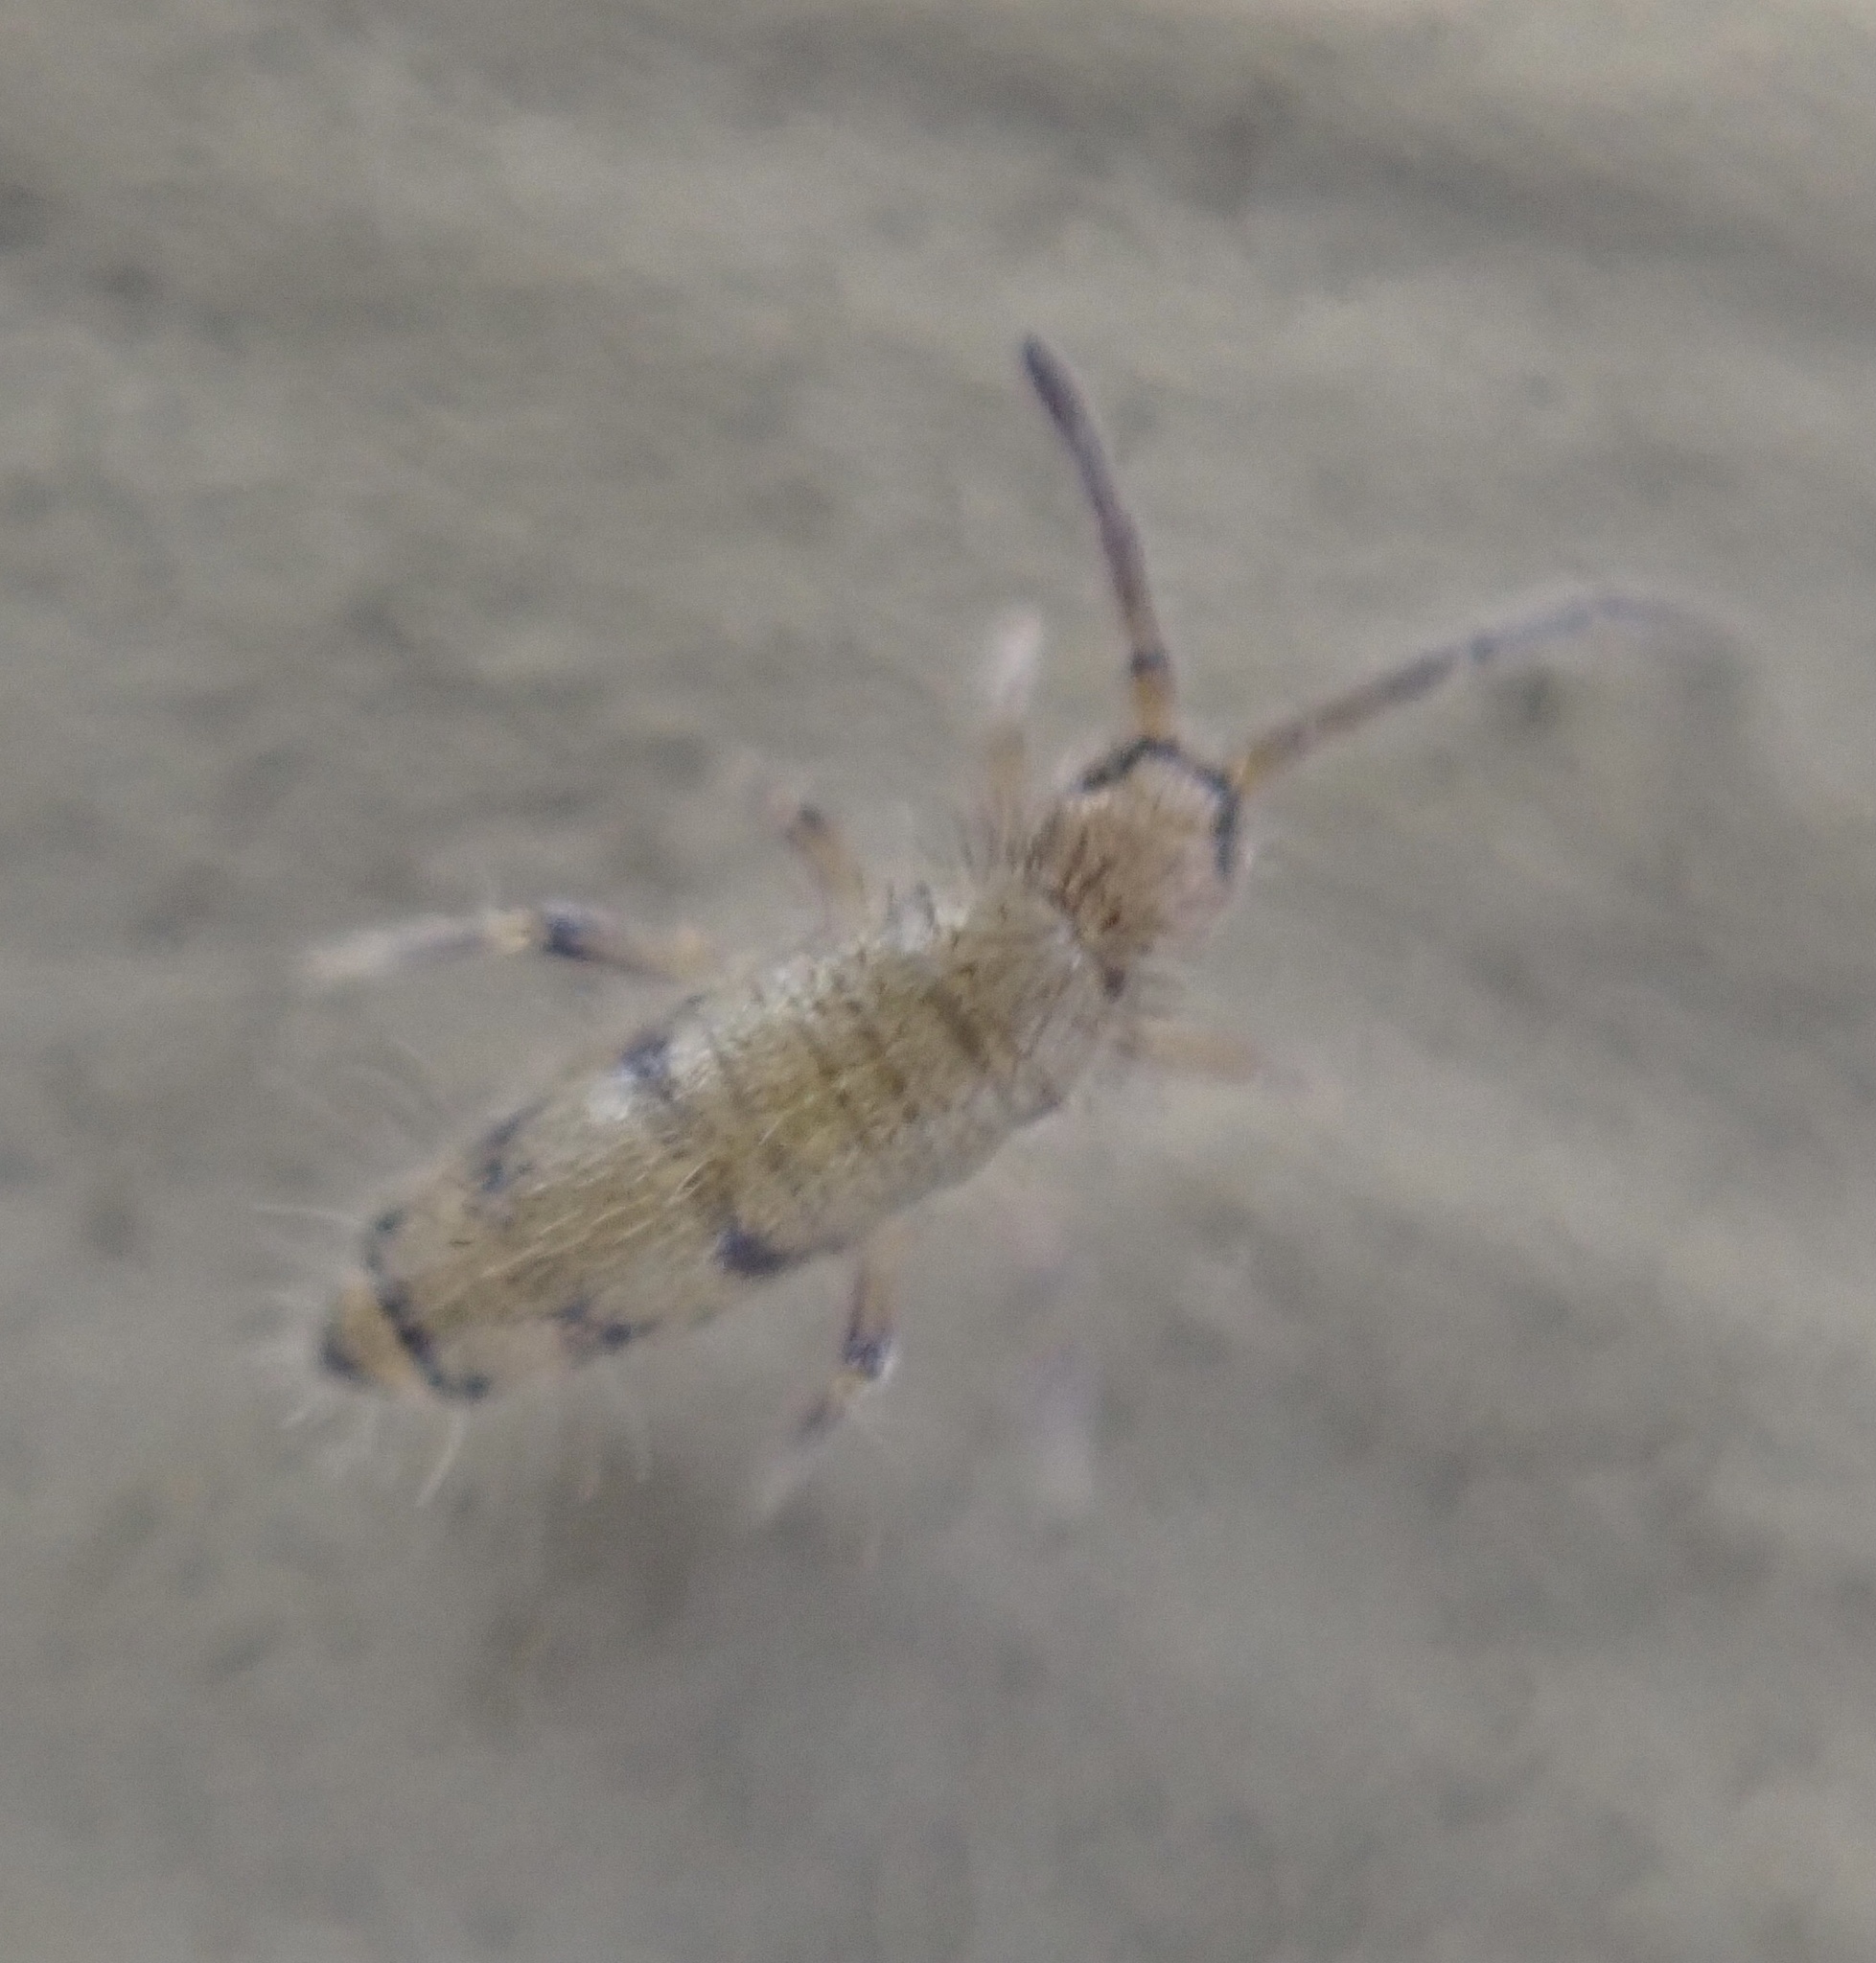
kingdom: Animalia
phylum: Arthropoda
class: Collembola
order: Entomobryomorpha
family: Entomobryidae
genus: Willowsia
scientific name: Willowsia nigromaculata
